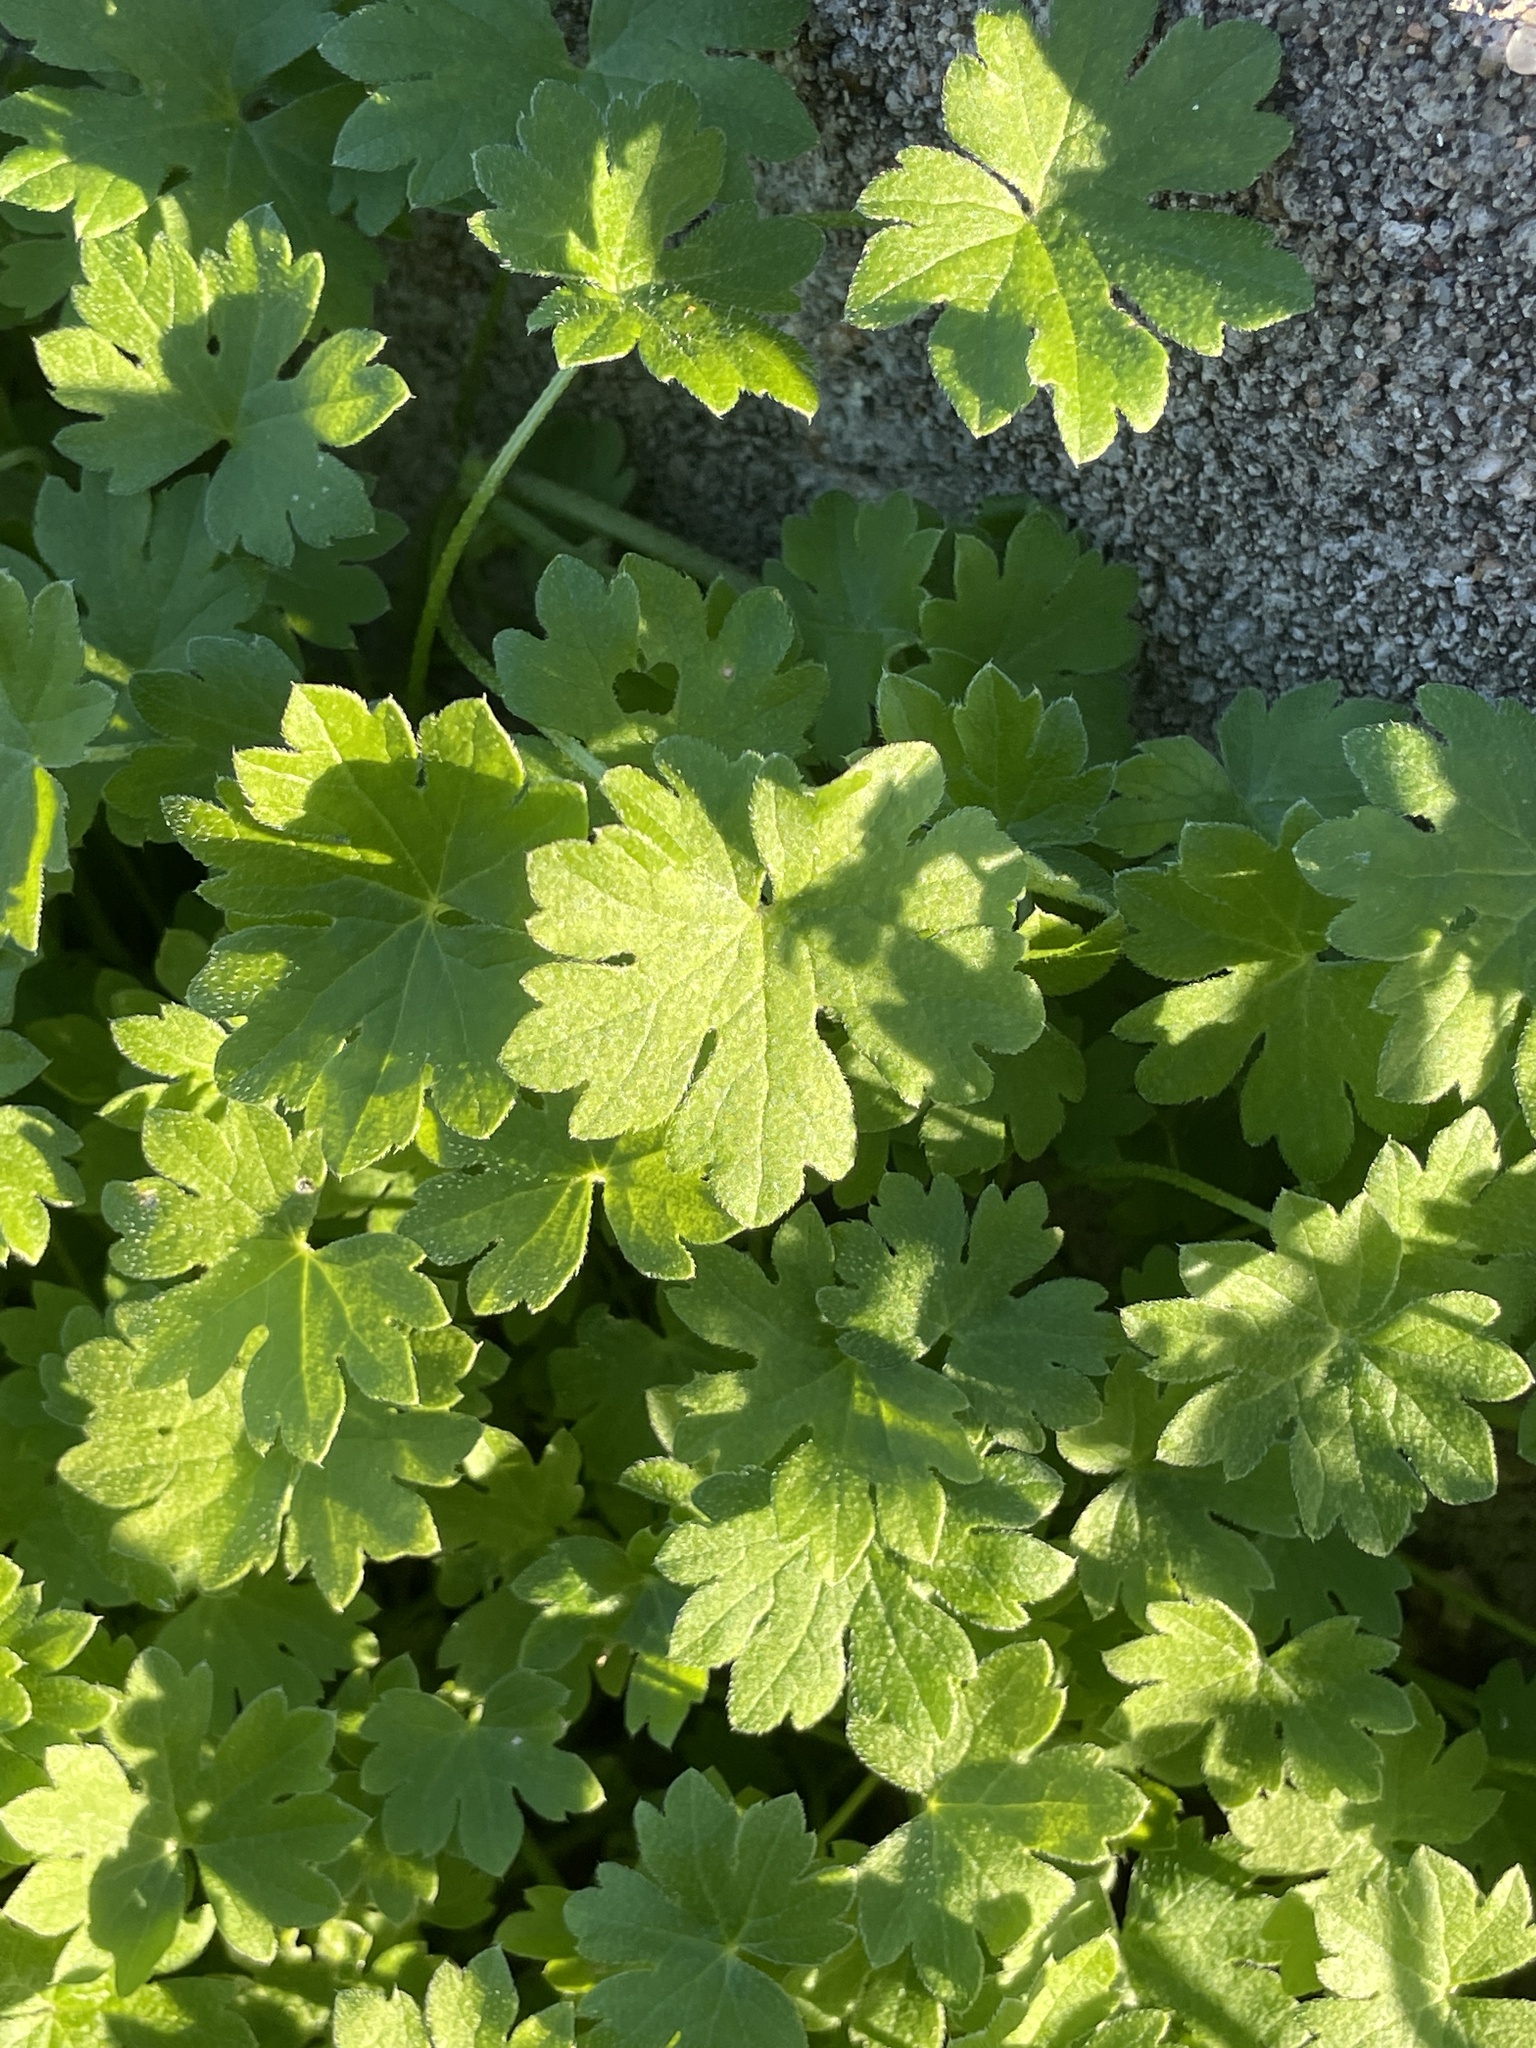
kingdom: Plantae
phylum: Tracheophyta
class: Magnoliopsida
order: Apiales
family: Apiaceae
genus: Bowlesia
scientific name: Bowlesia incana
